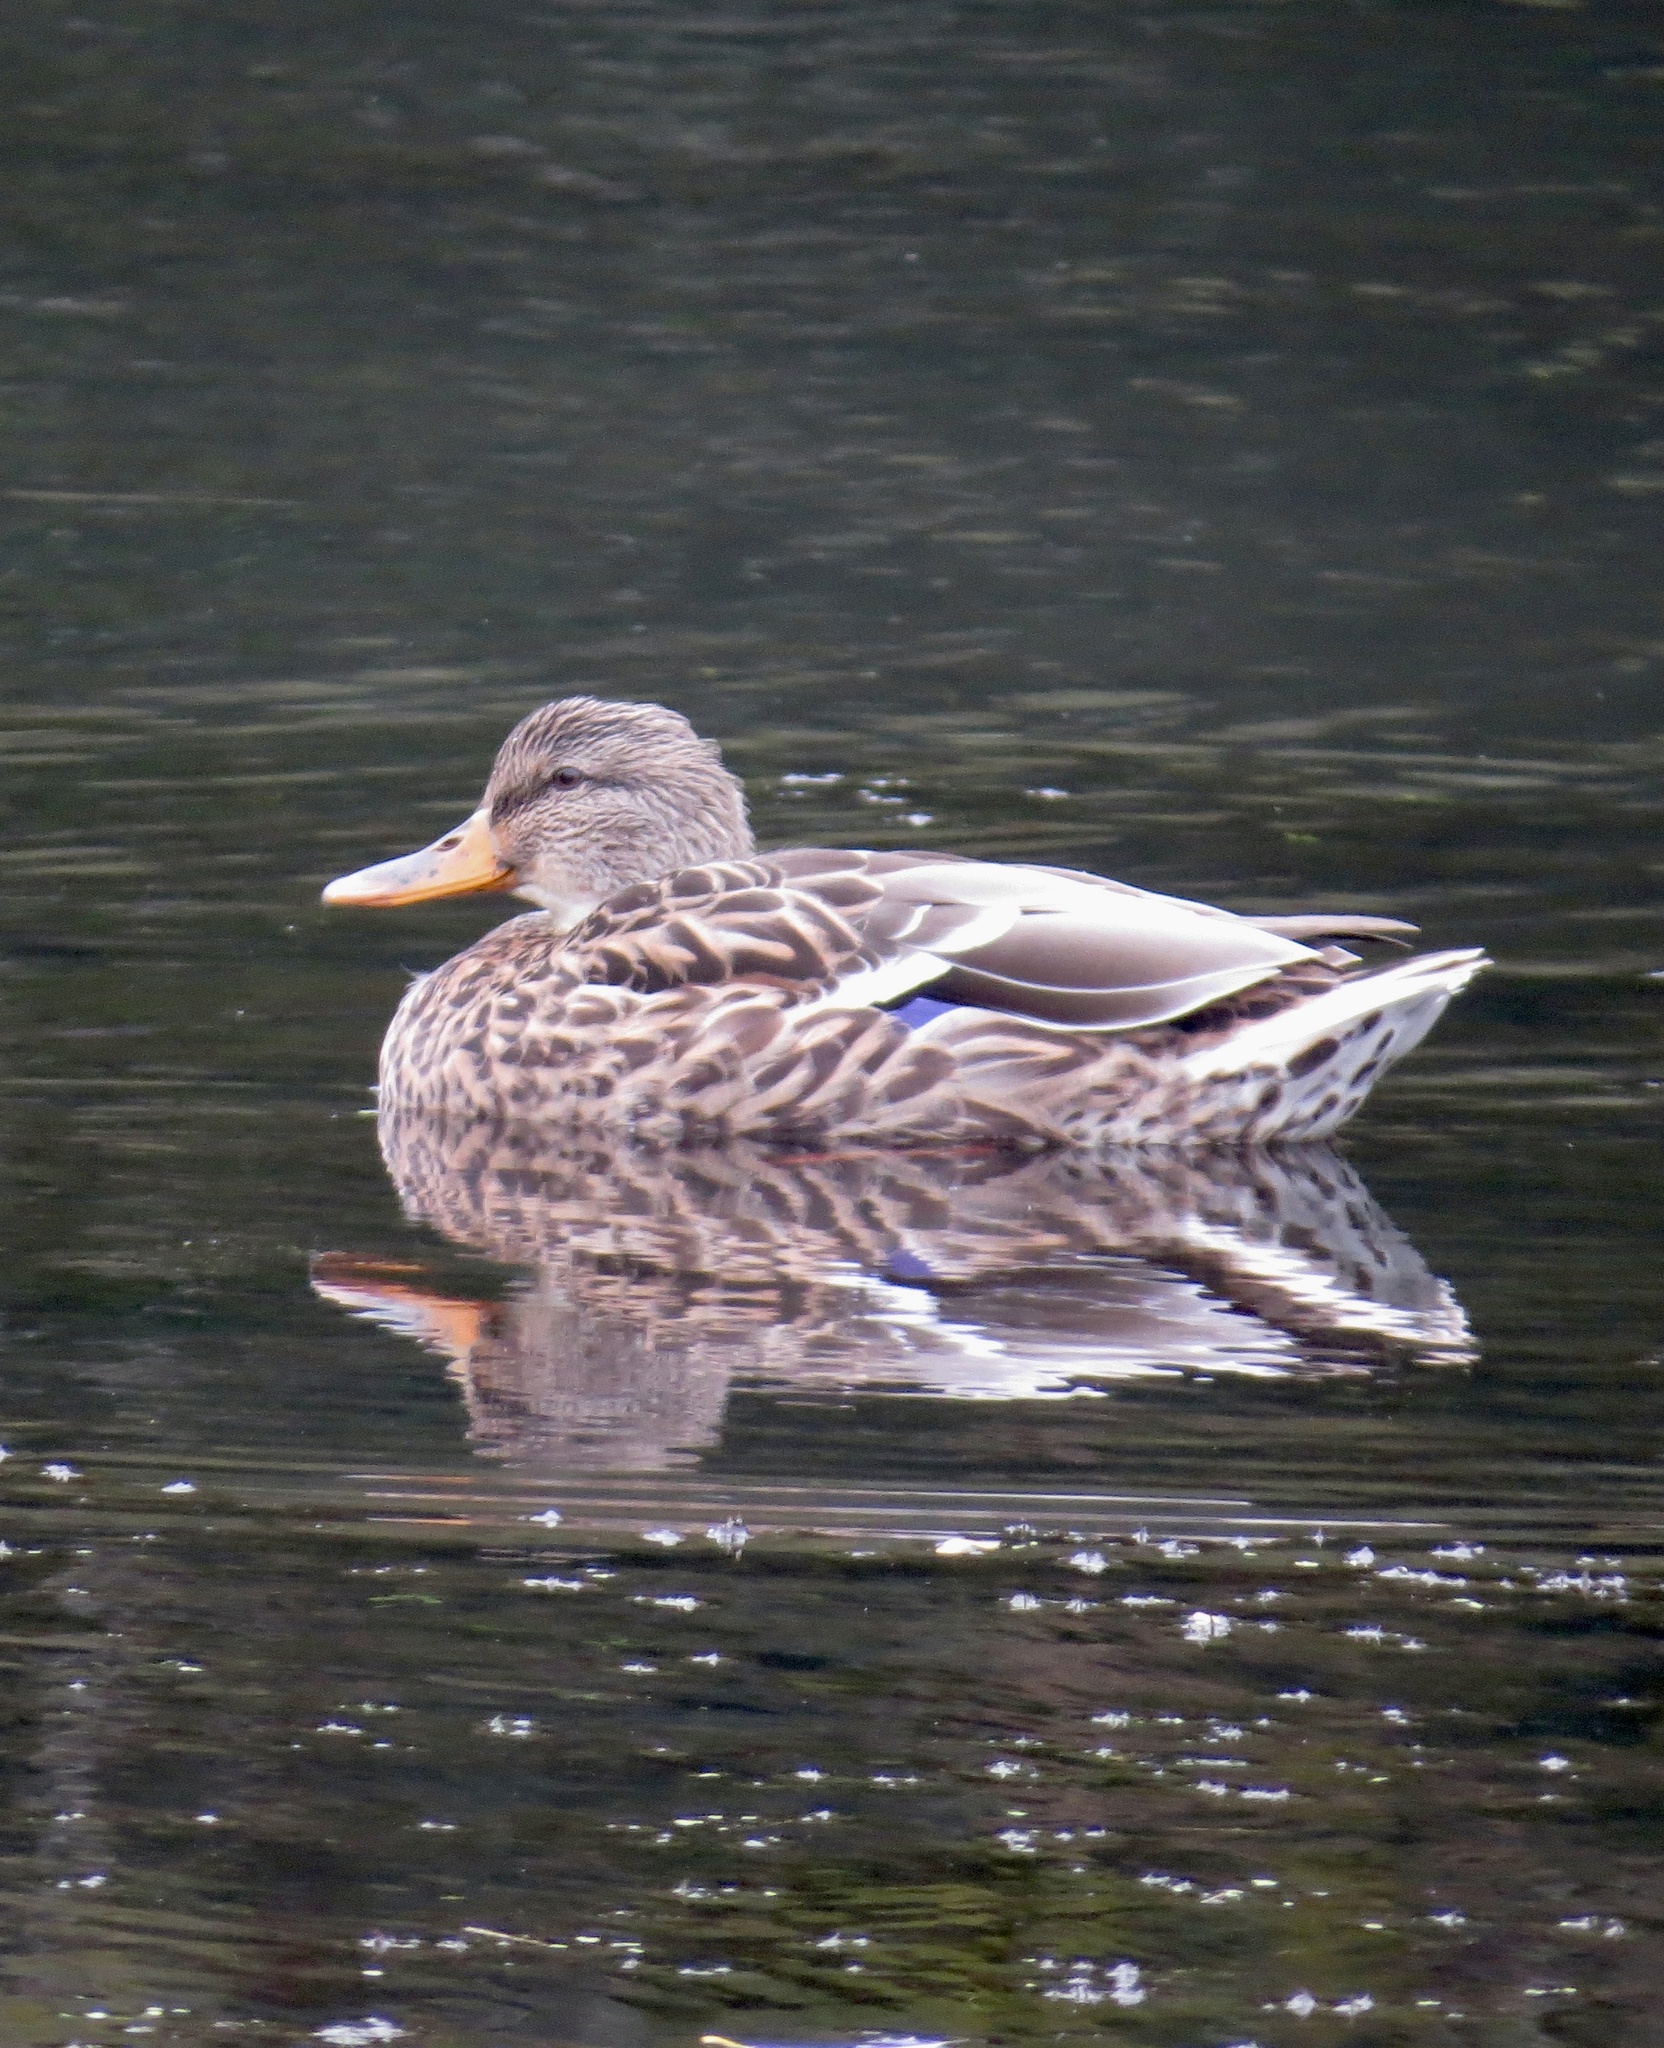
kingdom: Animalia
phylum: Chordata
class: Aves
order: Anseriformes
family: Anatidae
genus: Anas
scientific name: Anas platyrhynchos
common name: Mallard
